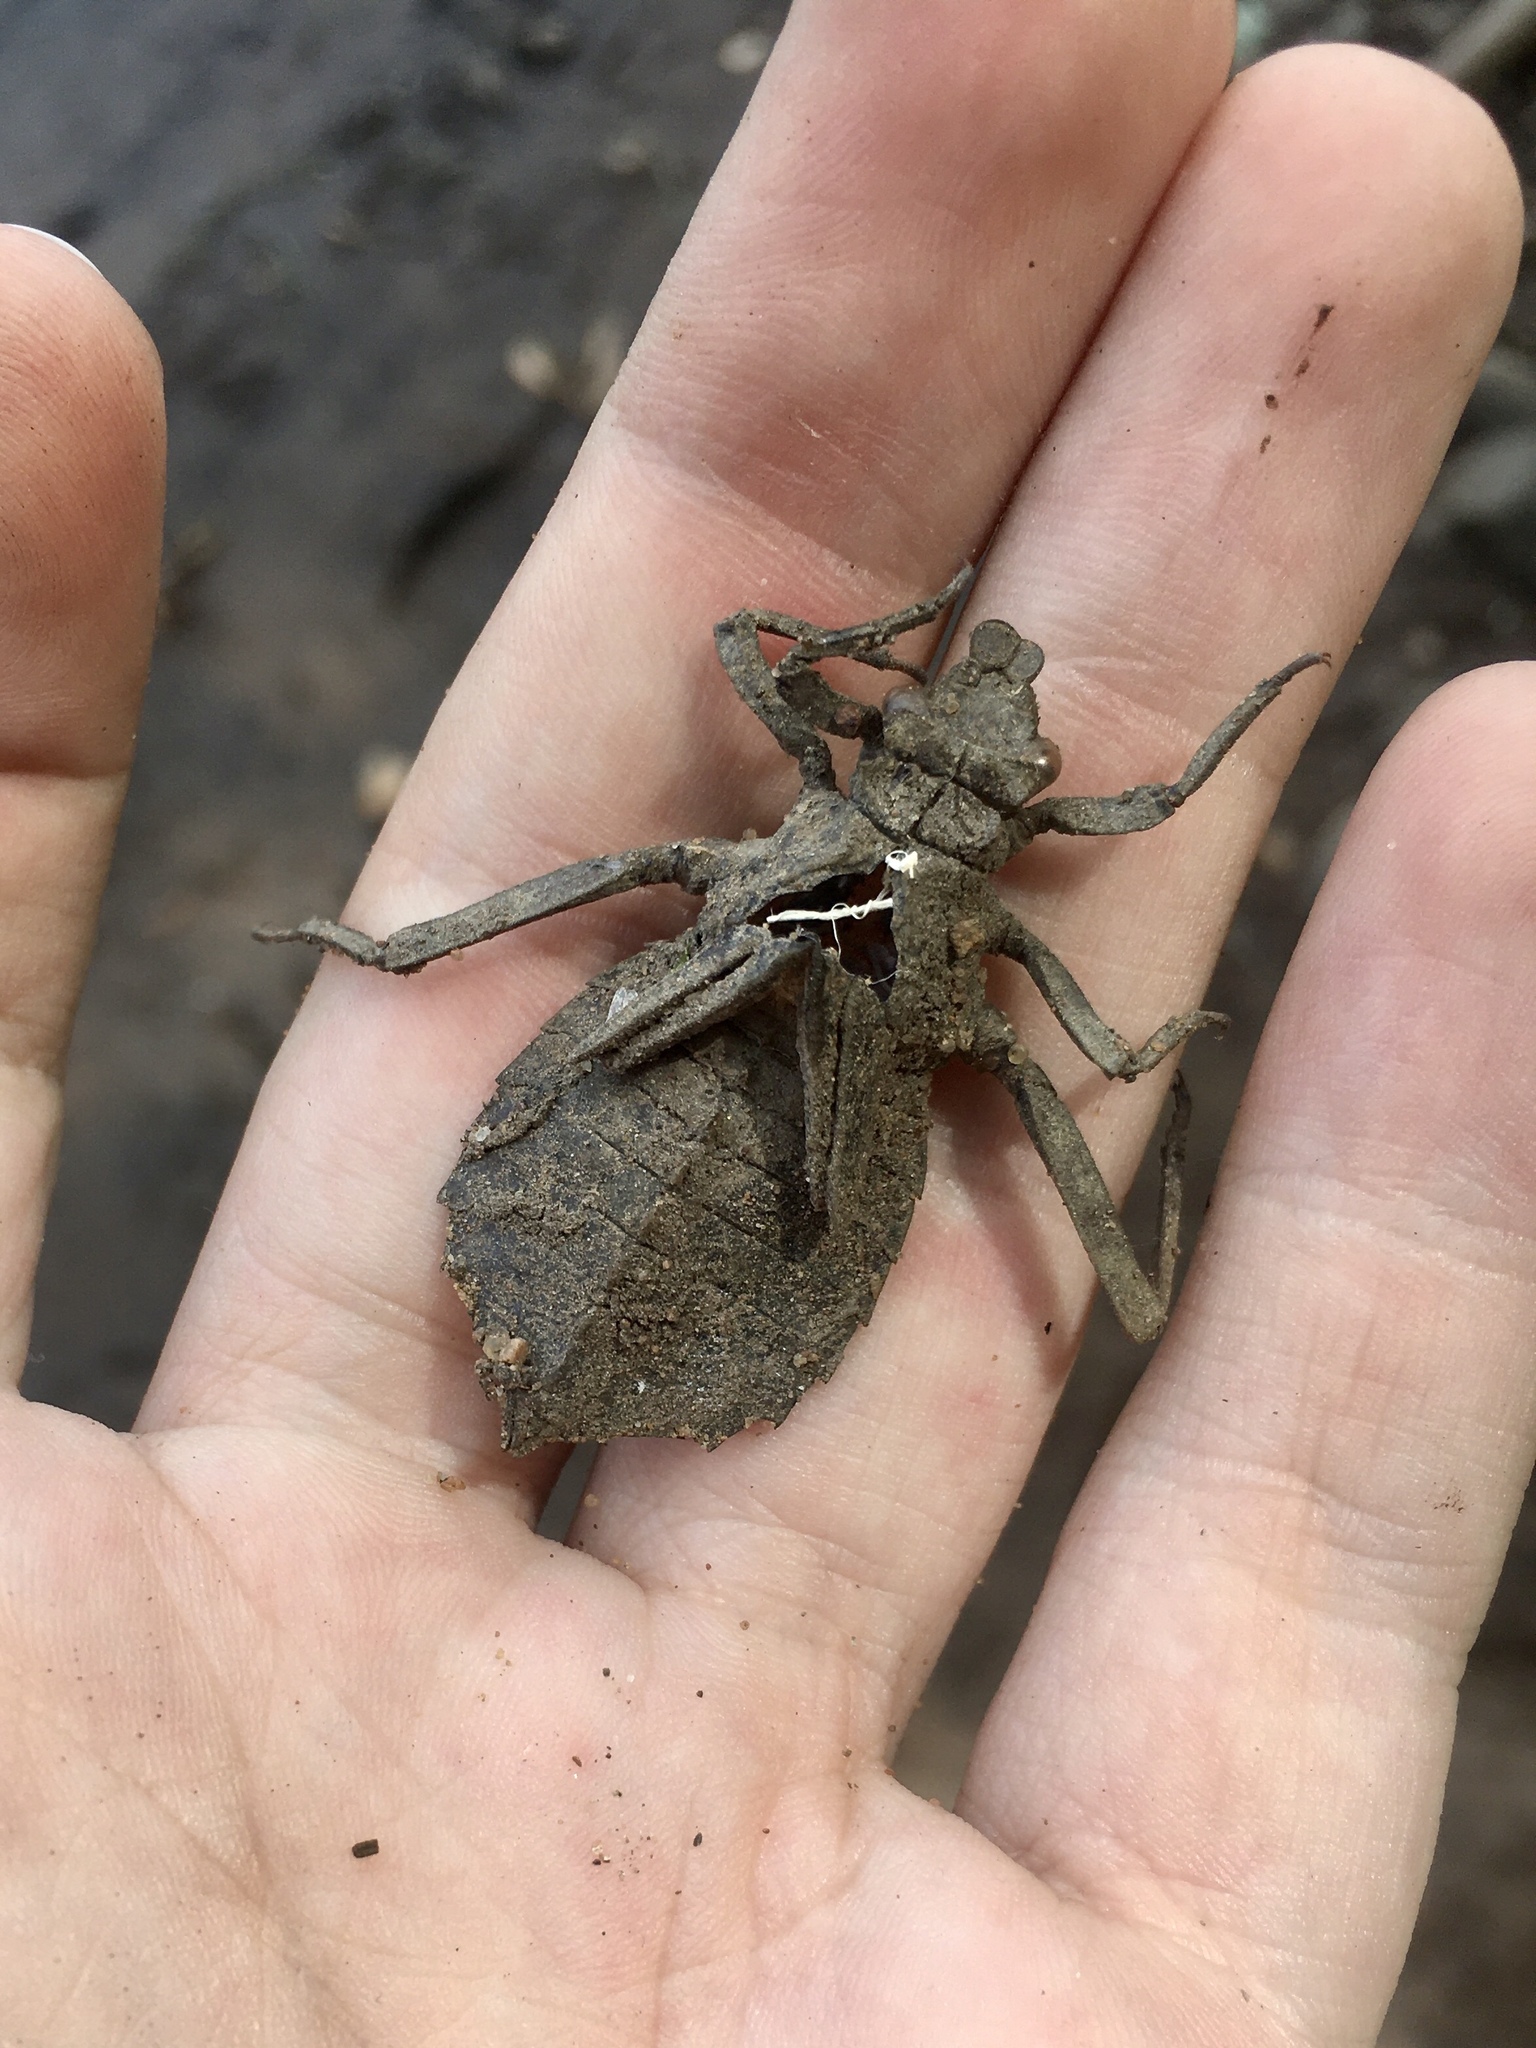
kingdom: Animalia
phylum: Arthropoda
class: Insecta
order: Odonata
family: Gomphidae
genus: Hagenius
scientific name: Hagenius brevistylus
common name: Dragonhunter
